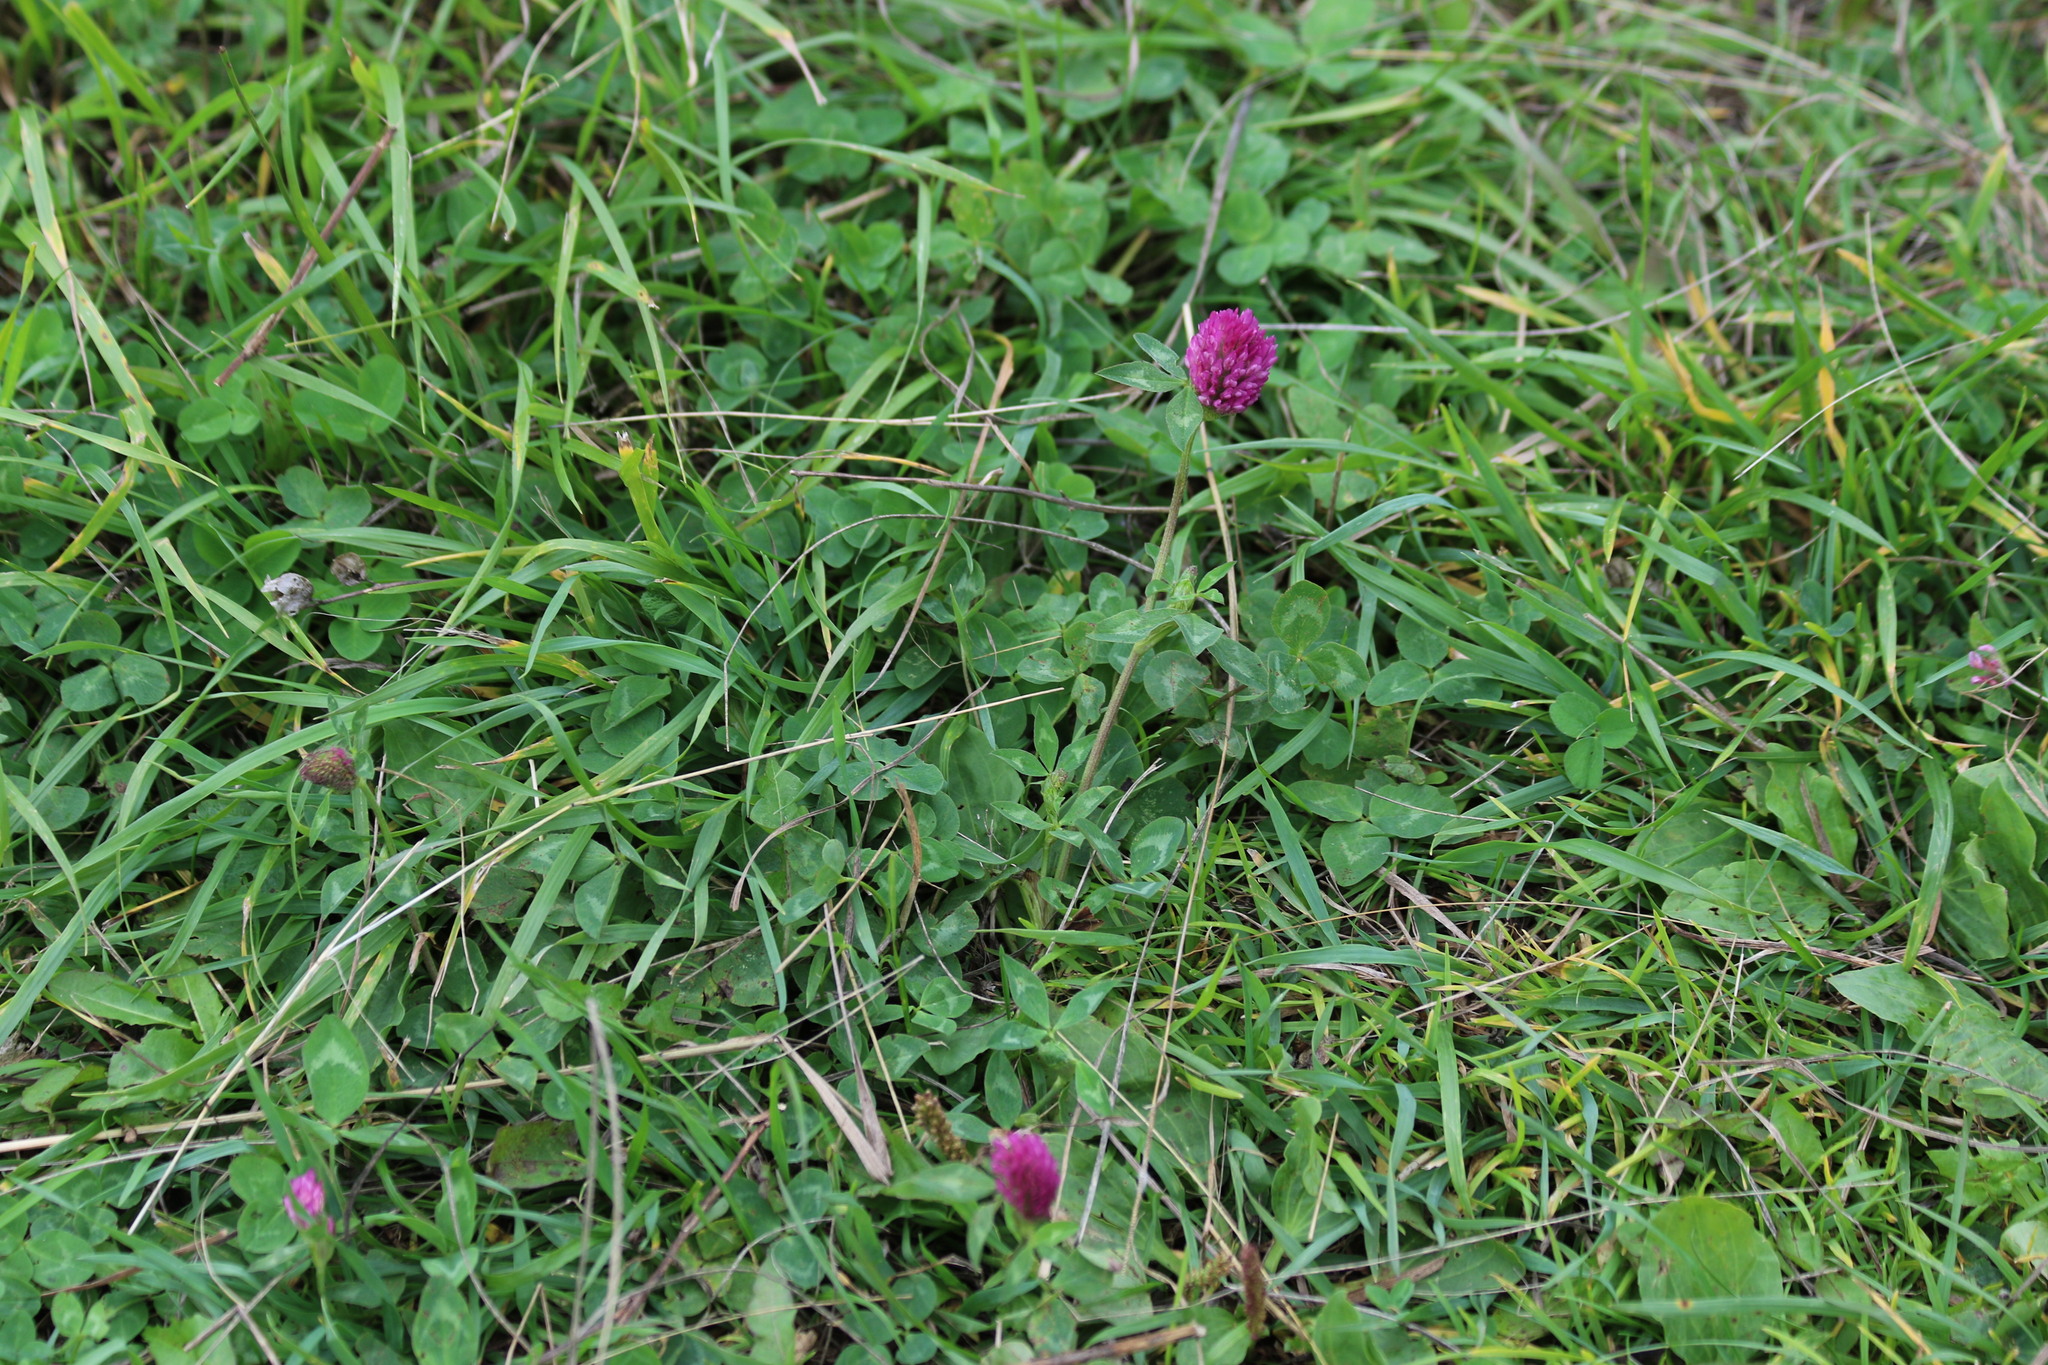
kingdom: Plantae
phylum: Tracheophyta
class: Magnoliopsida
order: Fabales
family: Fabaceae
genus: Trifolium
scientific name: Trifolium pratense
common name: Red clover
